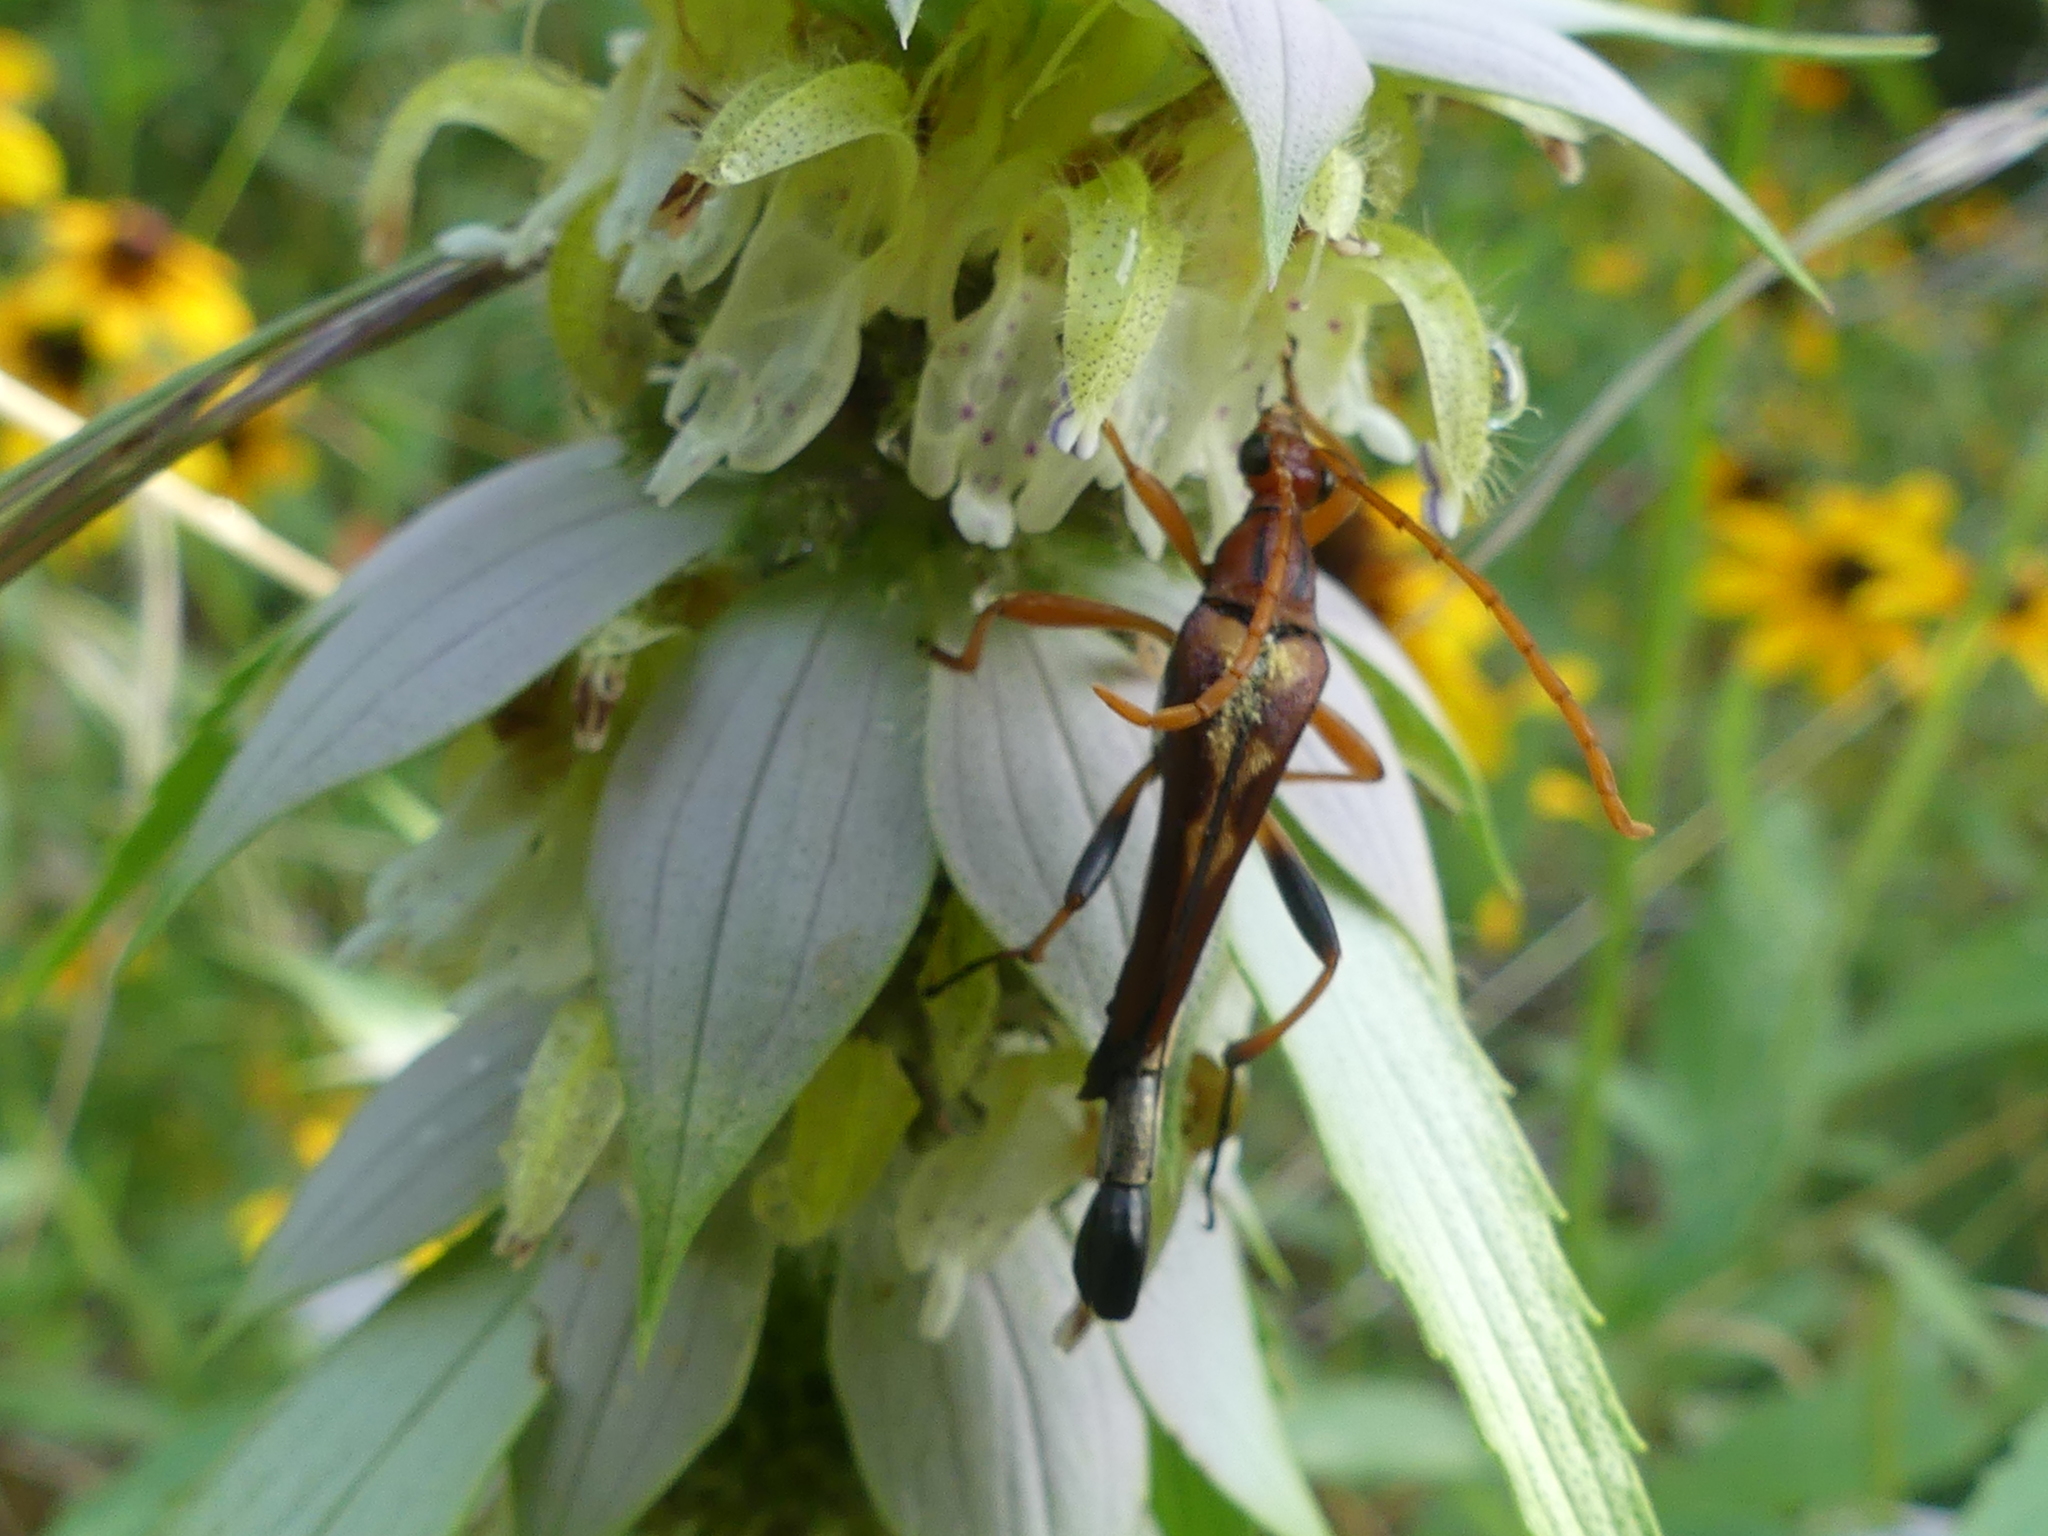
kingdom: Animalia
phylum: Arthropoda
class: Insecta
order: Coleoptera
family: Cerambycidae
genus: Strangalia
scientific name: Strangalia virilis
